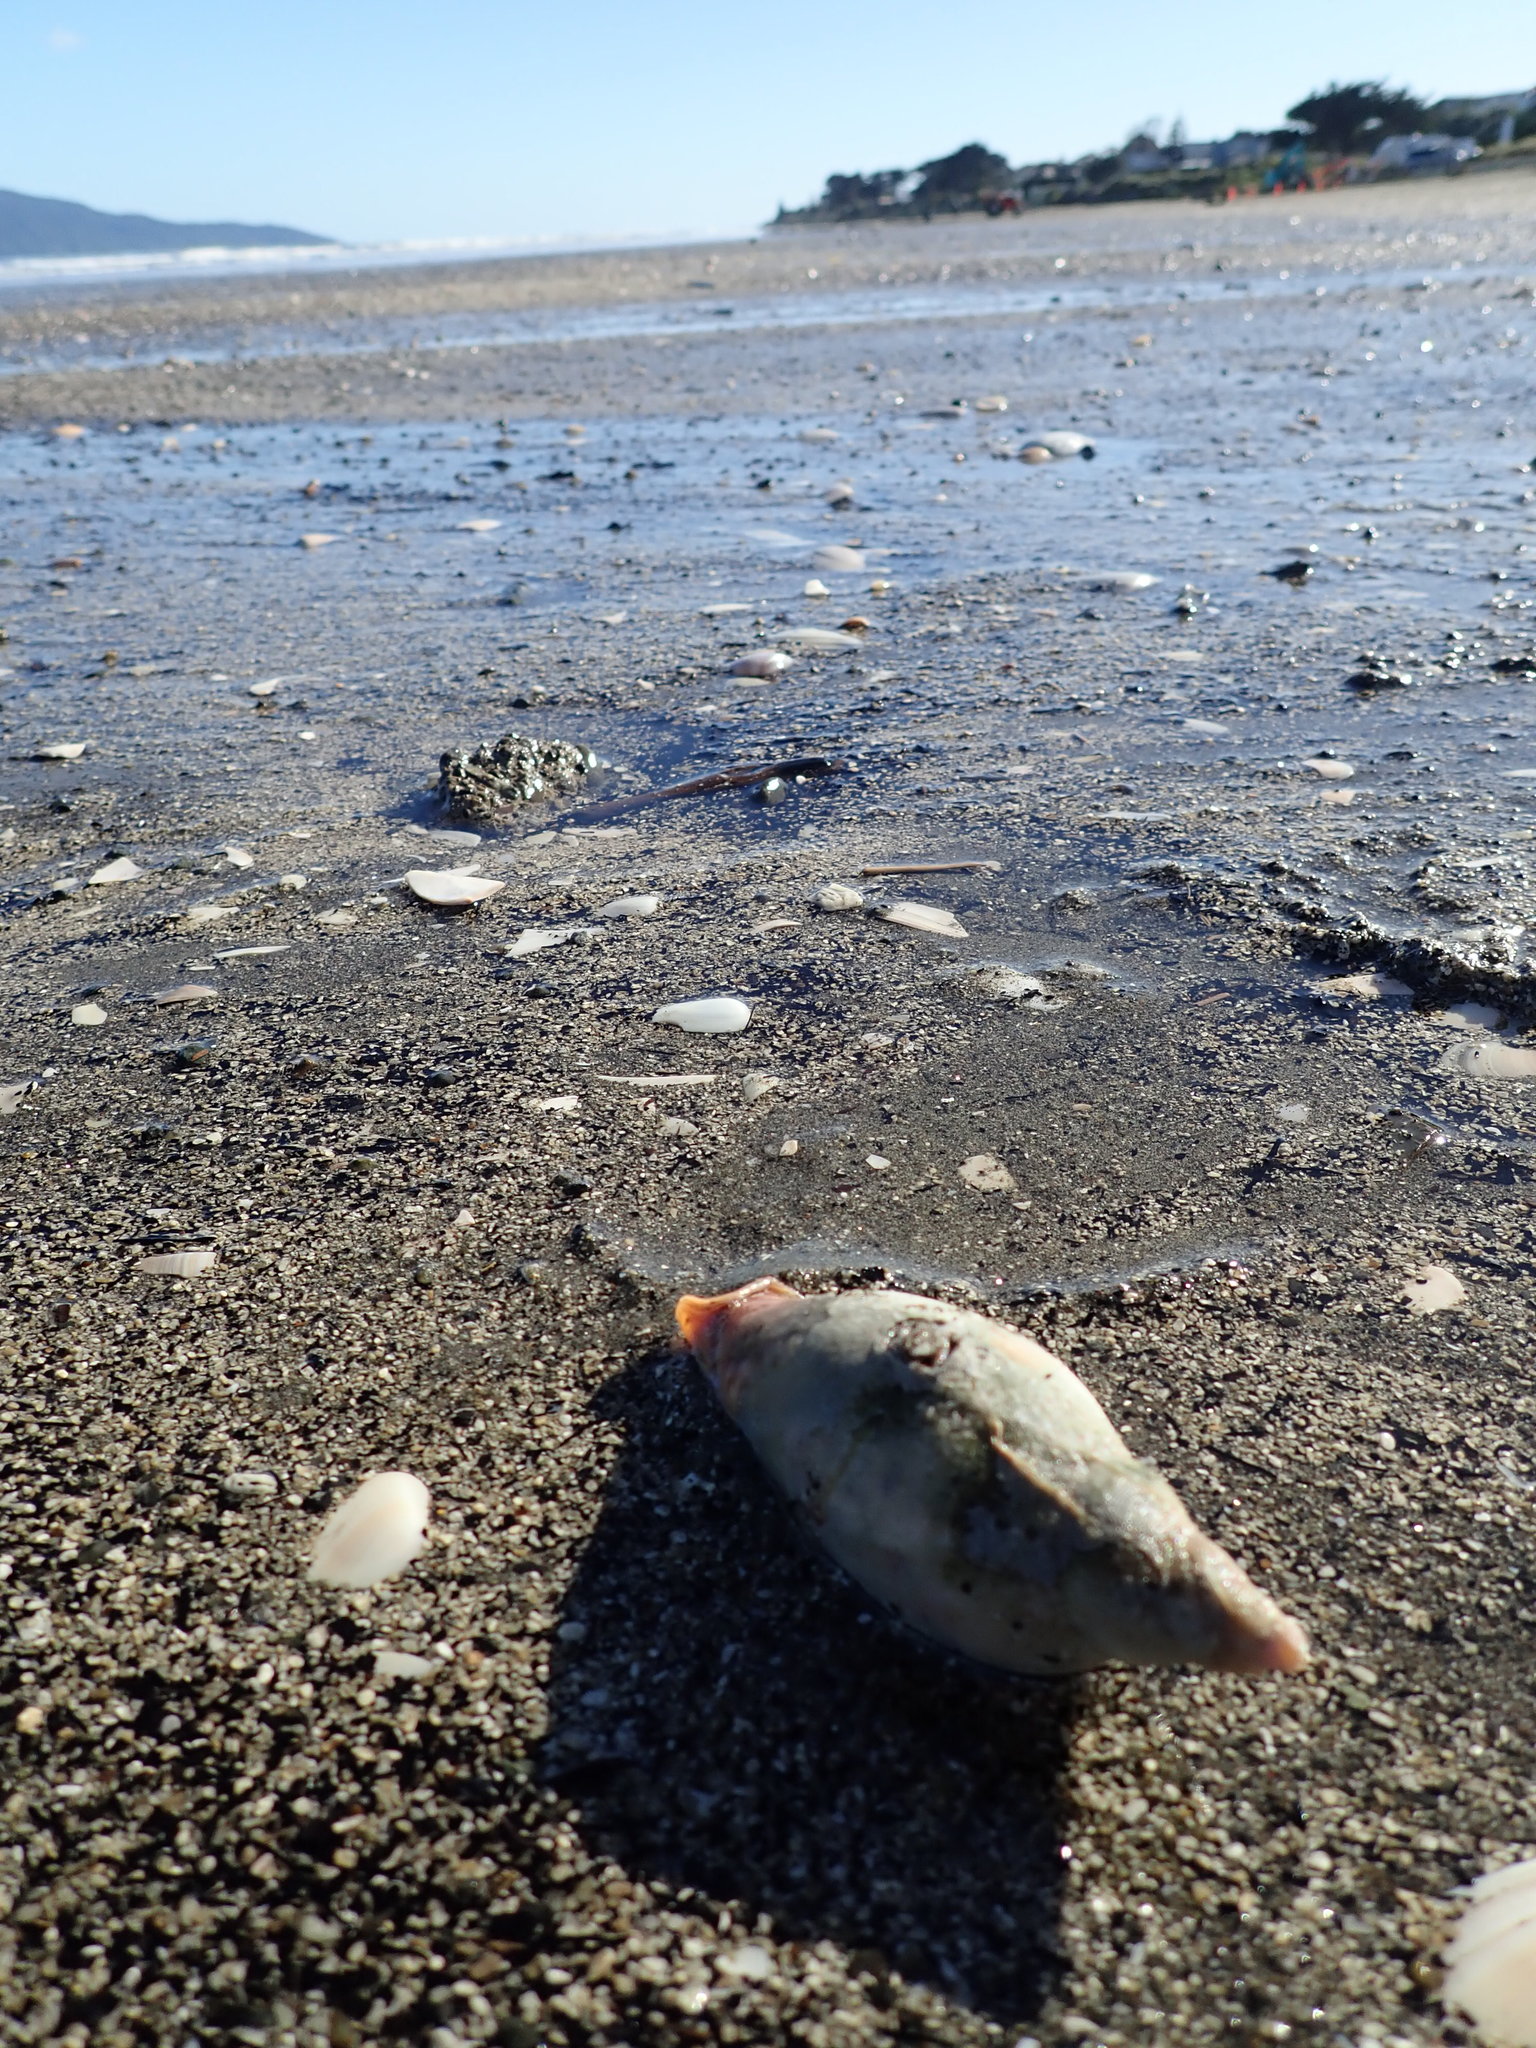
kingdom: Animalia
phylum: Mollusca
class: Gastropoda
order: Neogastropoda
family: Volutidae
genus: Alcithoe
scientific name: Alcithoe arabica
